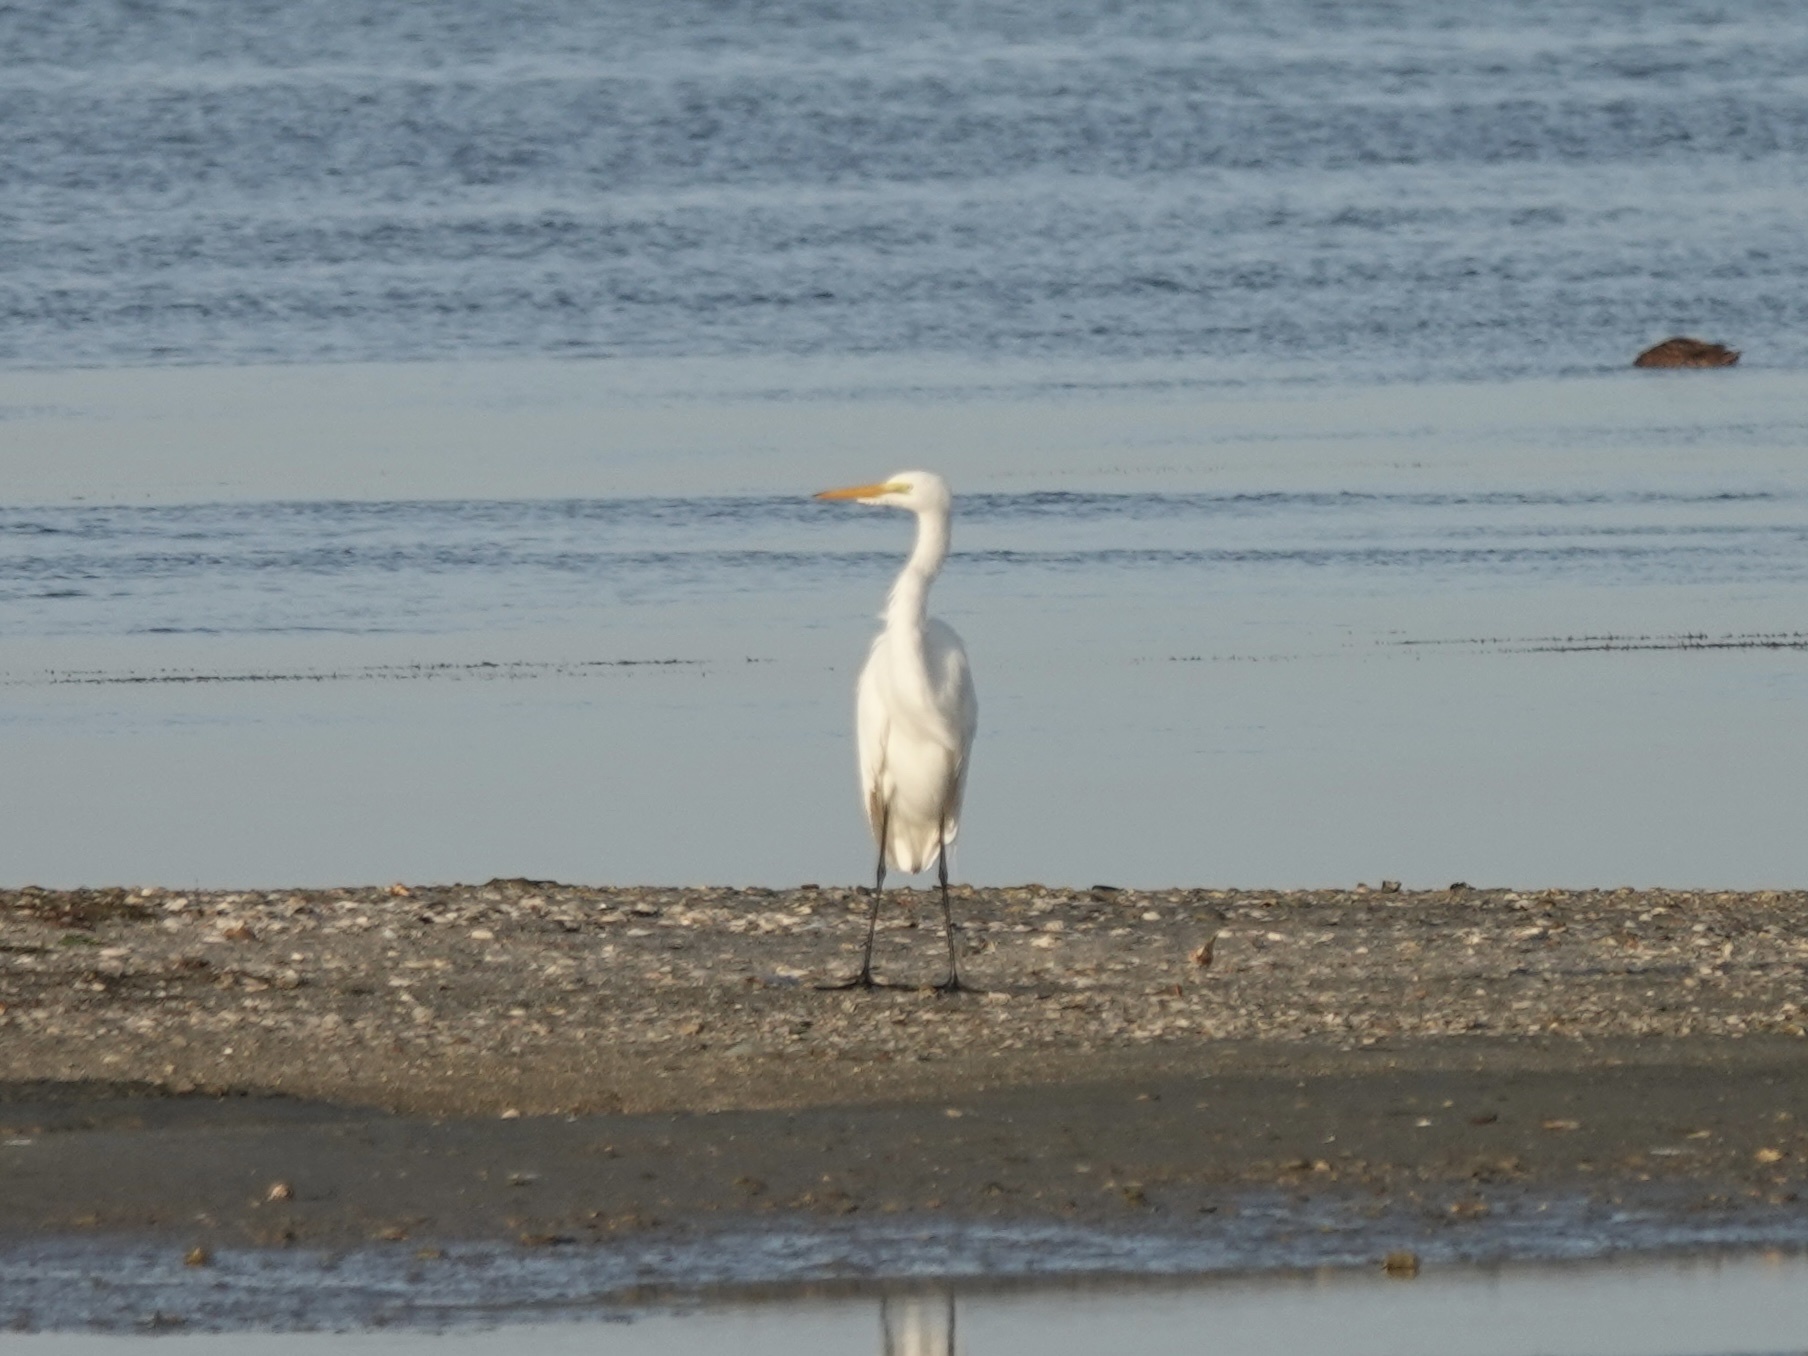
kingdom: Animalia
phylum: Chordata
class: Aves
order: Pelecaniformes
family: Ardeidae
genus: Ardea
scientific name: Ardea alba
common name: Great egret
